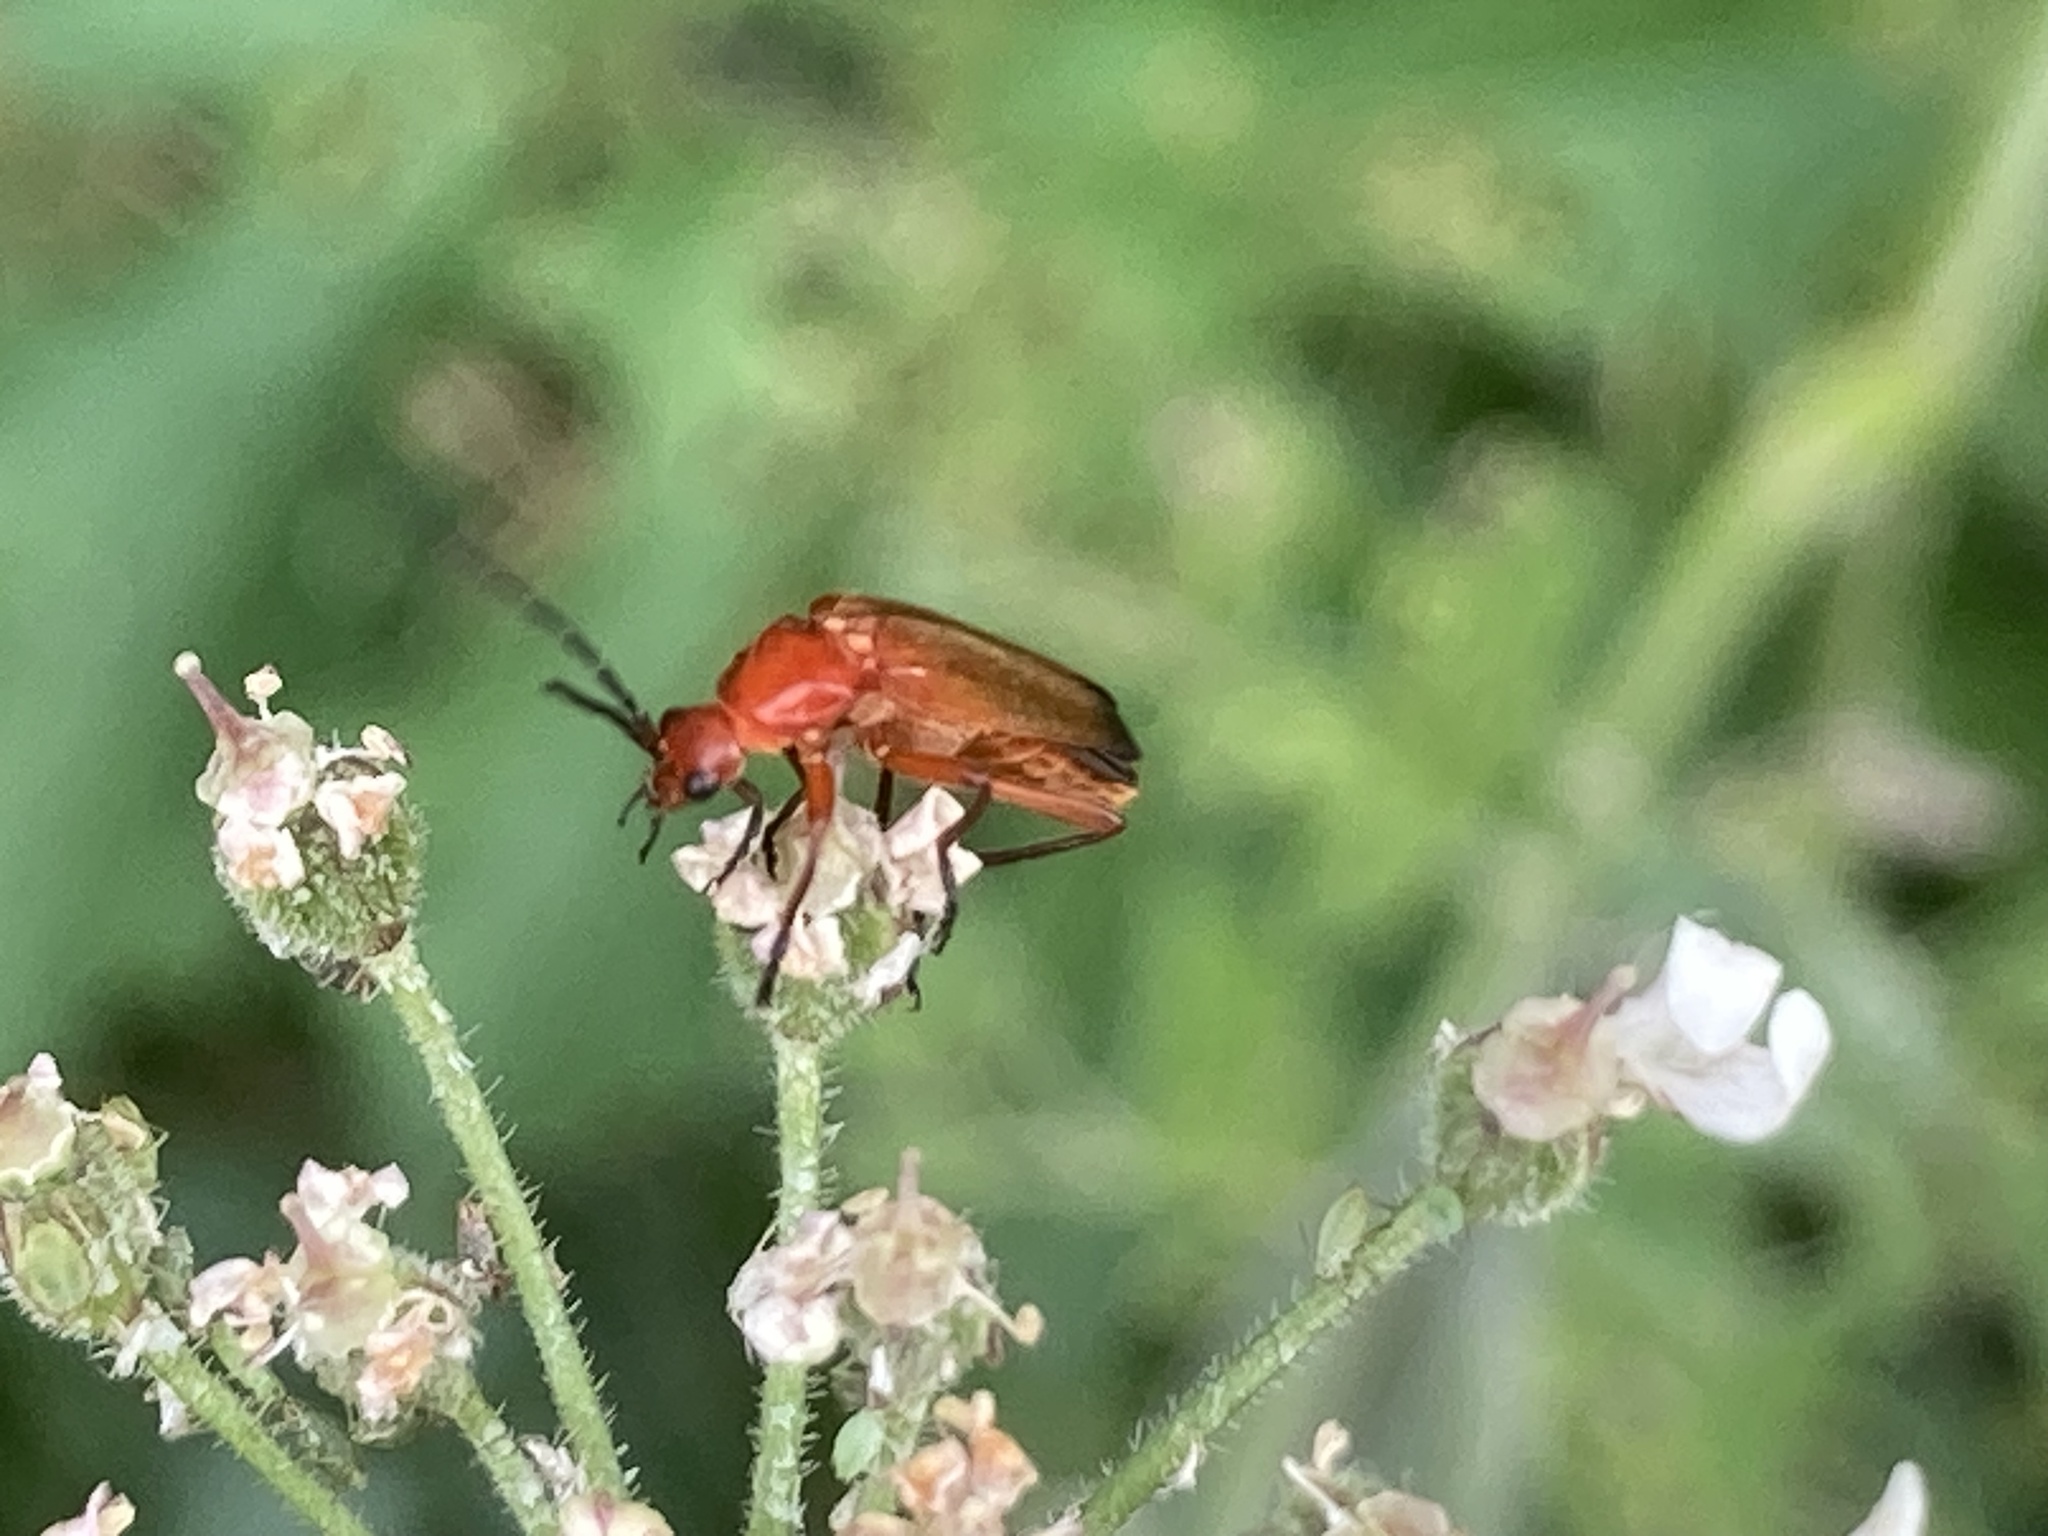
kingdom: Animalia
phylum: Arthropoda
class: Insecta
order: Coleoptera
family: Cantharidae
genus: Rhagonycha
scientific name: Rhagonycha fulva
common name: Common red soldier beetle
